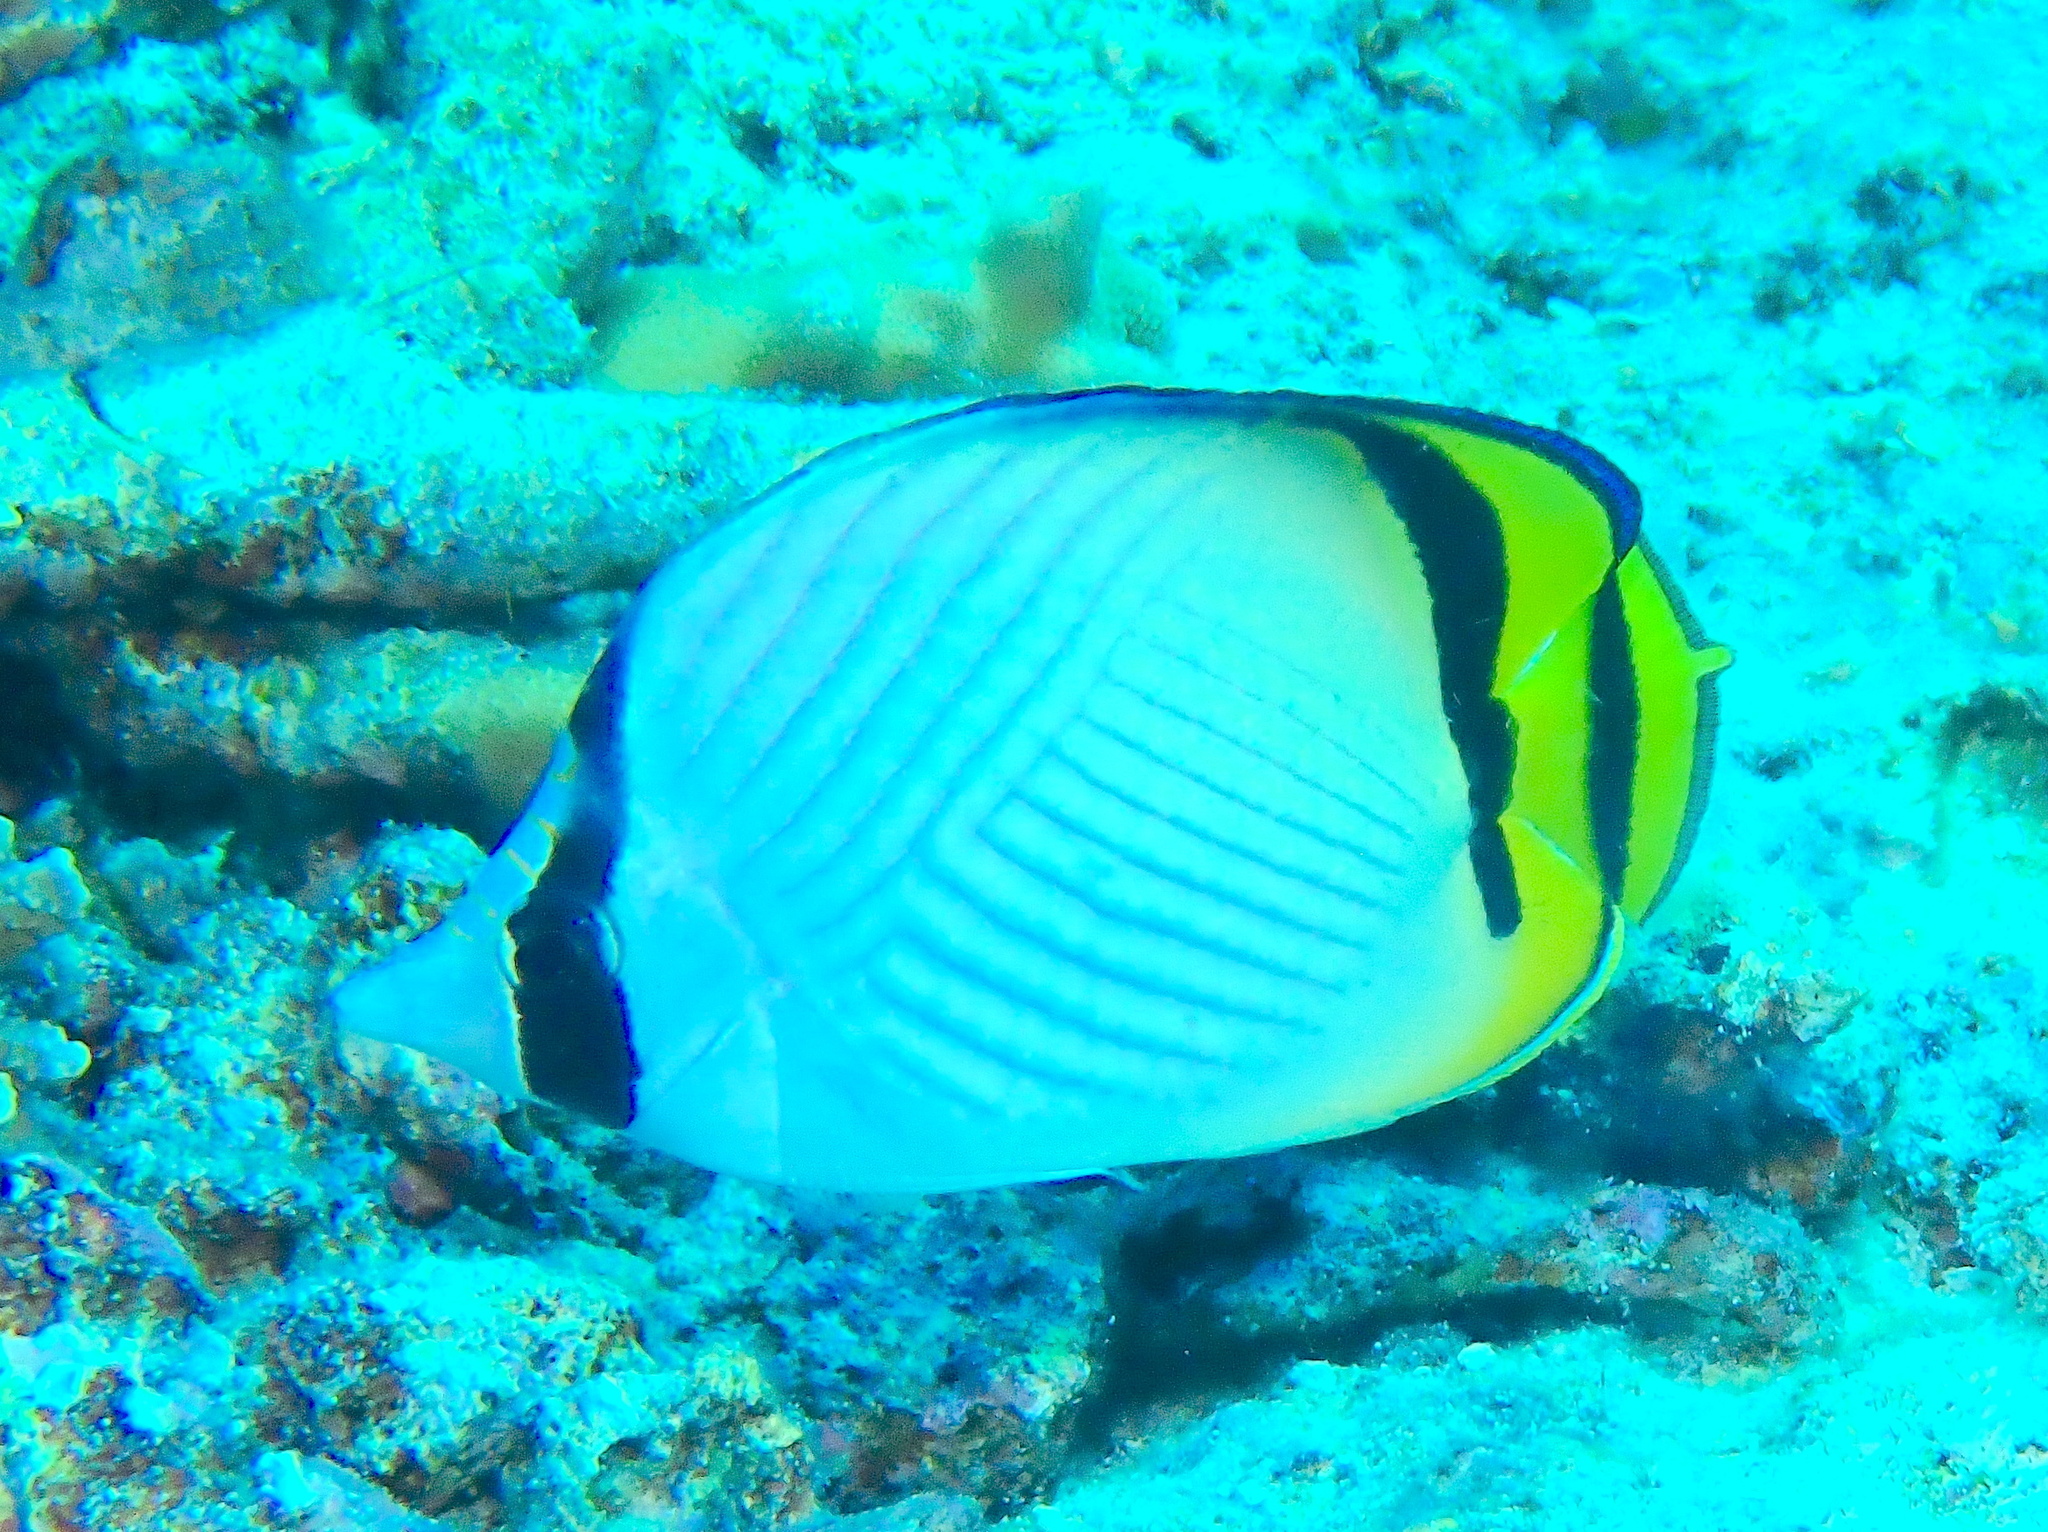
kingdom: Animalia
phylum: Chordata
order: Perciformes
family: Chaetodontidae
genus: Chaetodon
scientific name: Chaetodon vagabundus
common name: Vagabond butterflyfish
